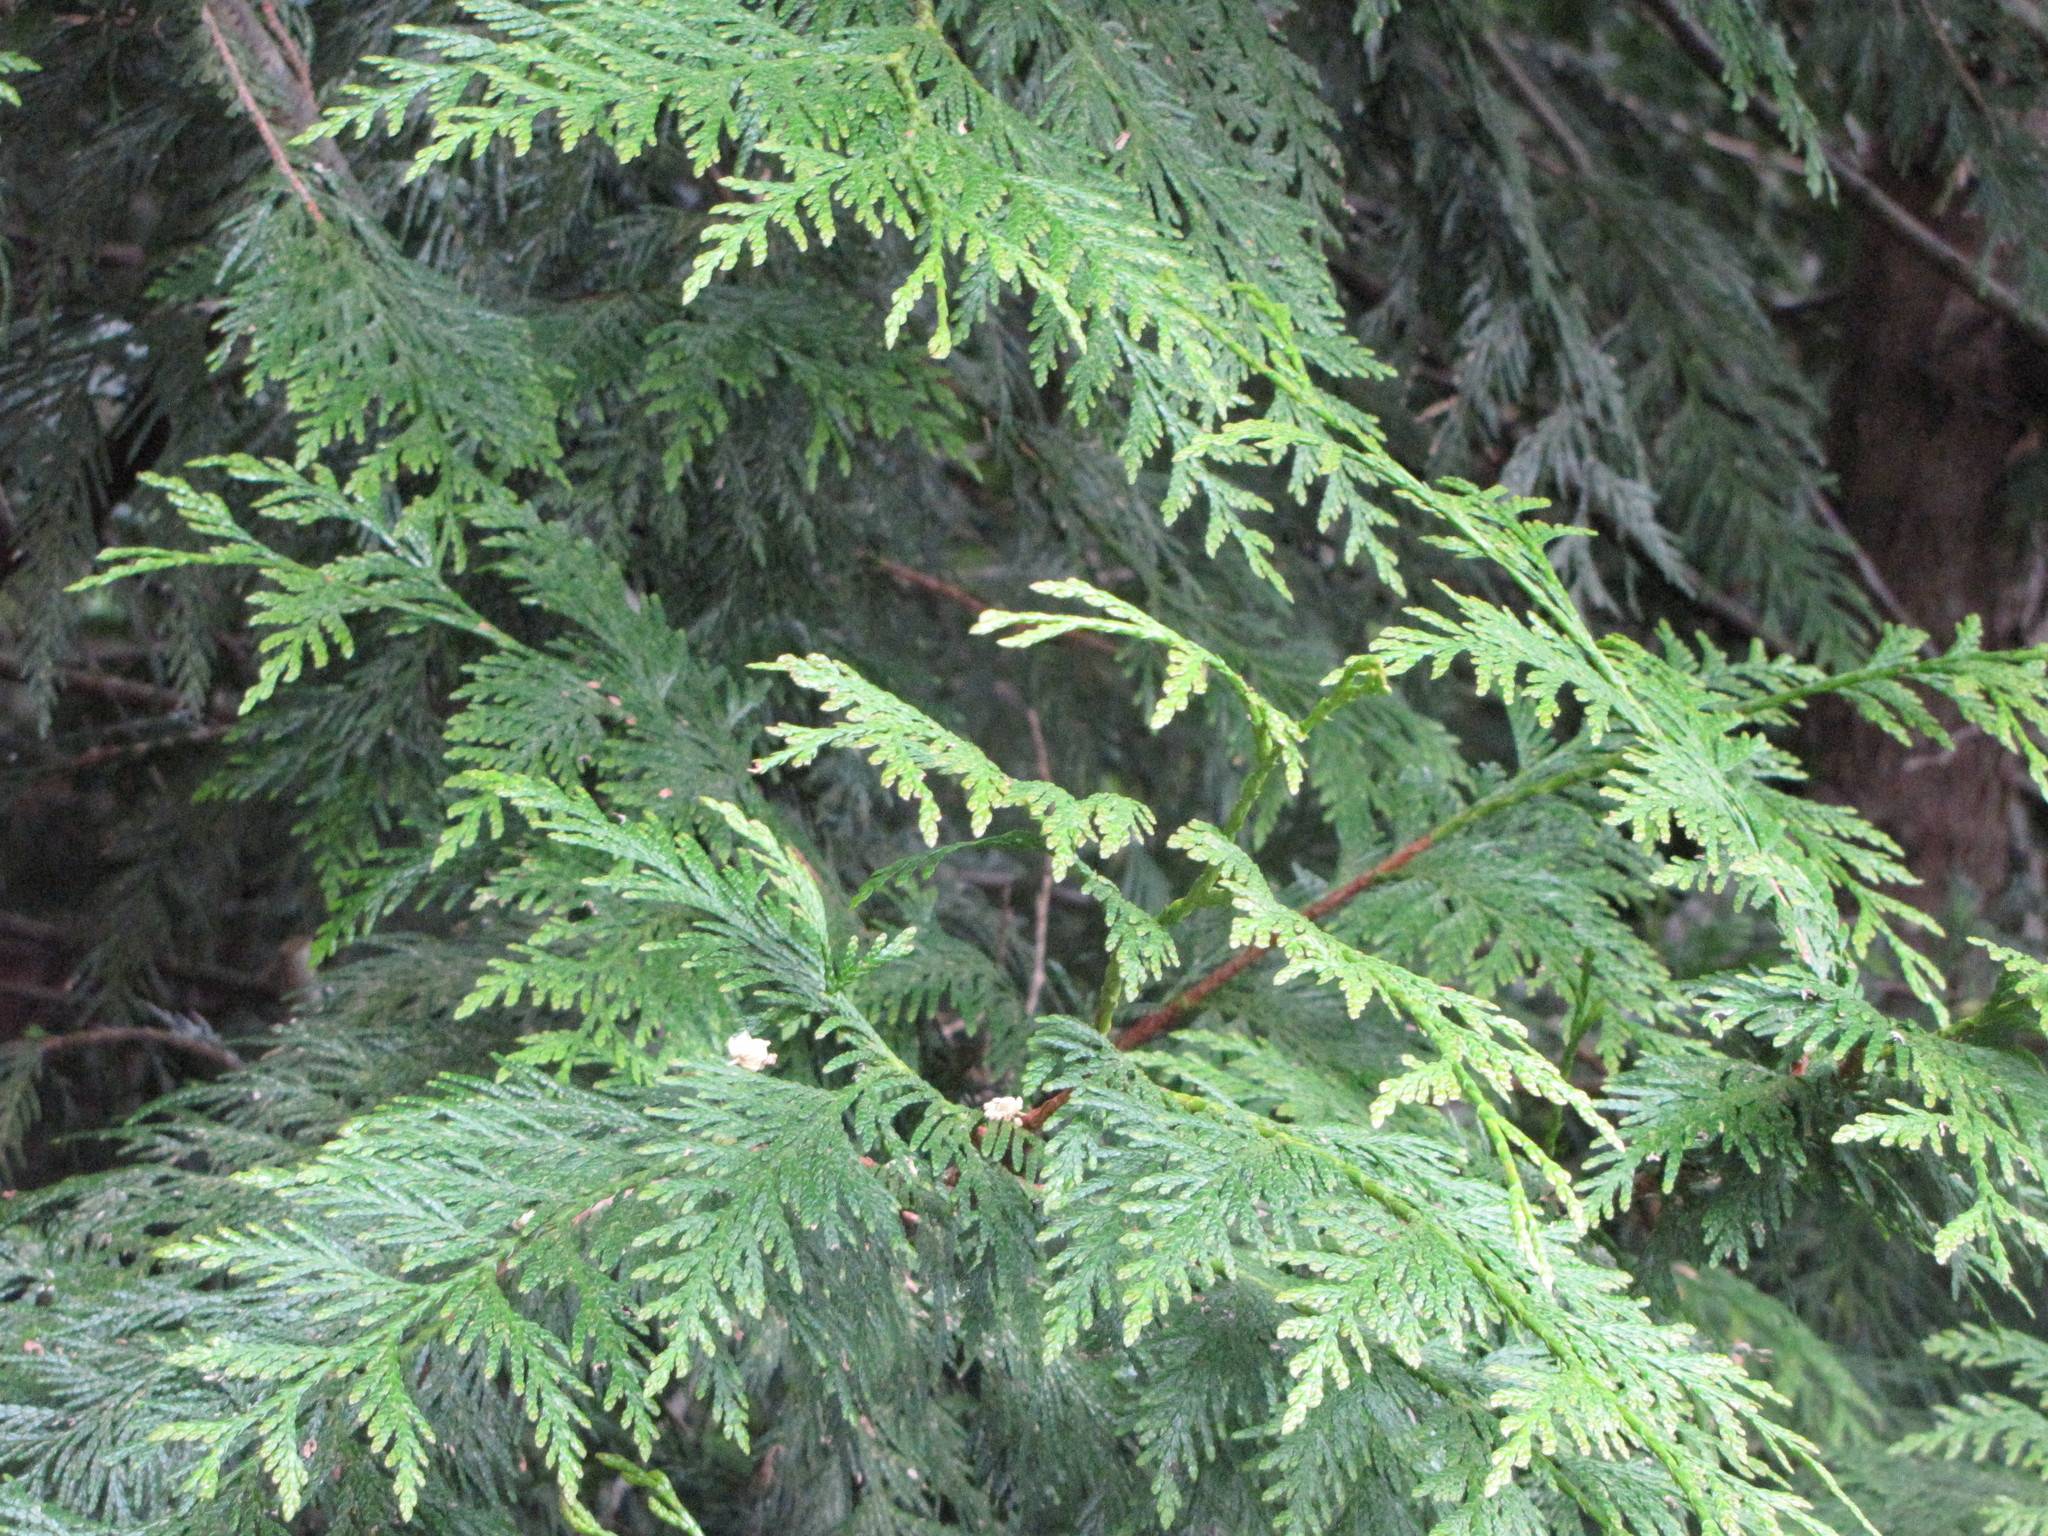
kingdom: Plantae
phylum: Tracheophyta
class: Pinopsida
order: Pinales
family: Cupressaceae
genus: Thuja
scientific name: Thuja plicata
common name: Western red-cedar
